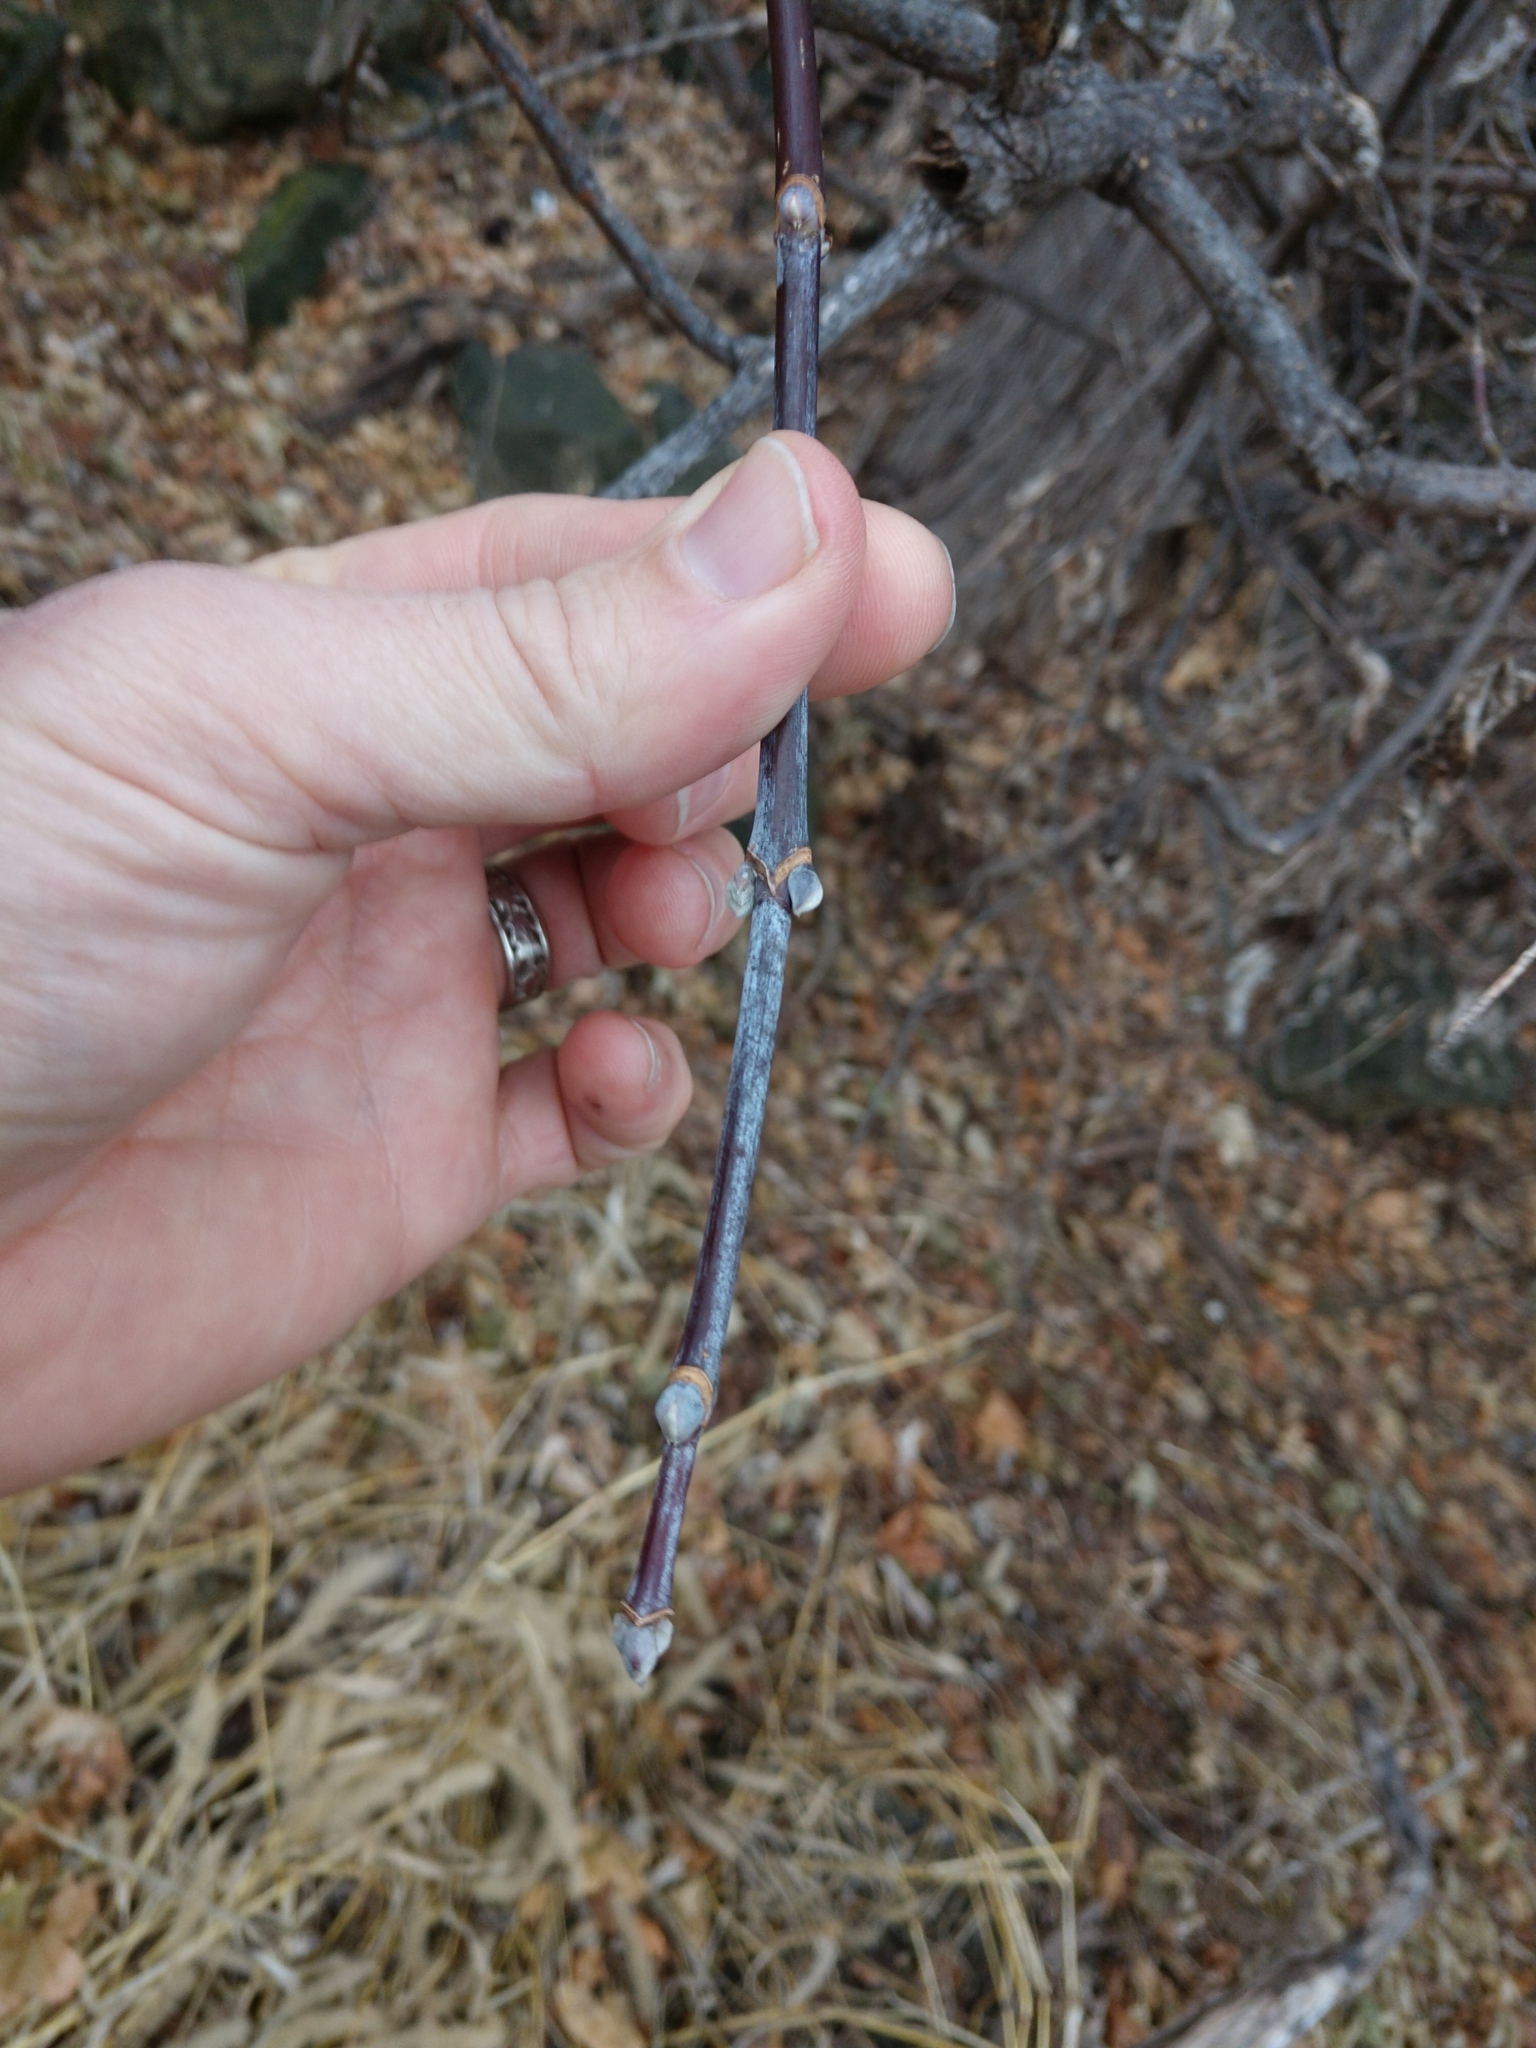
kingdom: Plantae
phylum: Tracheophyta
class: Magnoliopsida
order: Sapindales
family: Sapindaceae
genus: Acer
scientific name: Acer negundo
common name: Ashleaf maple
